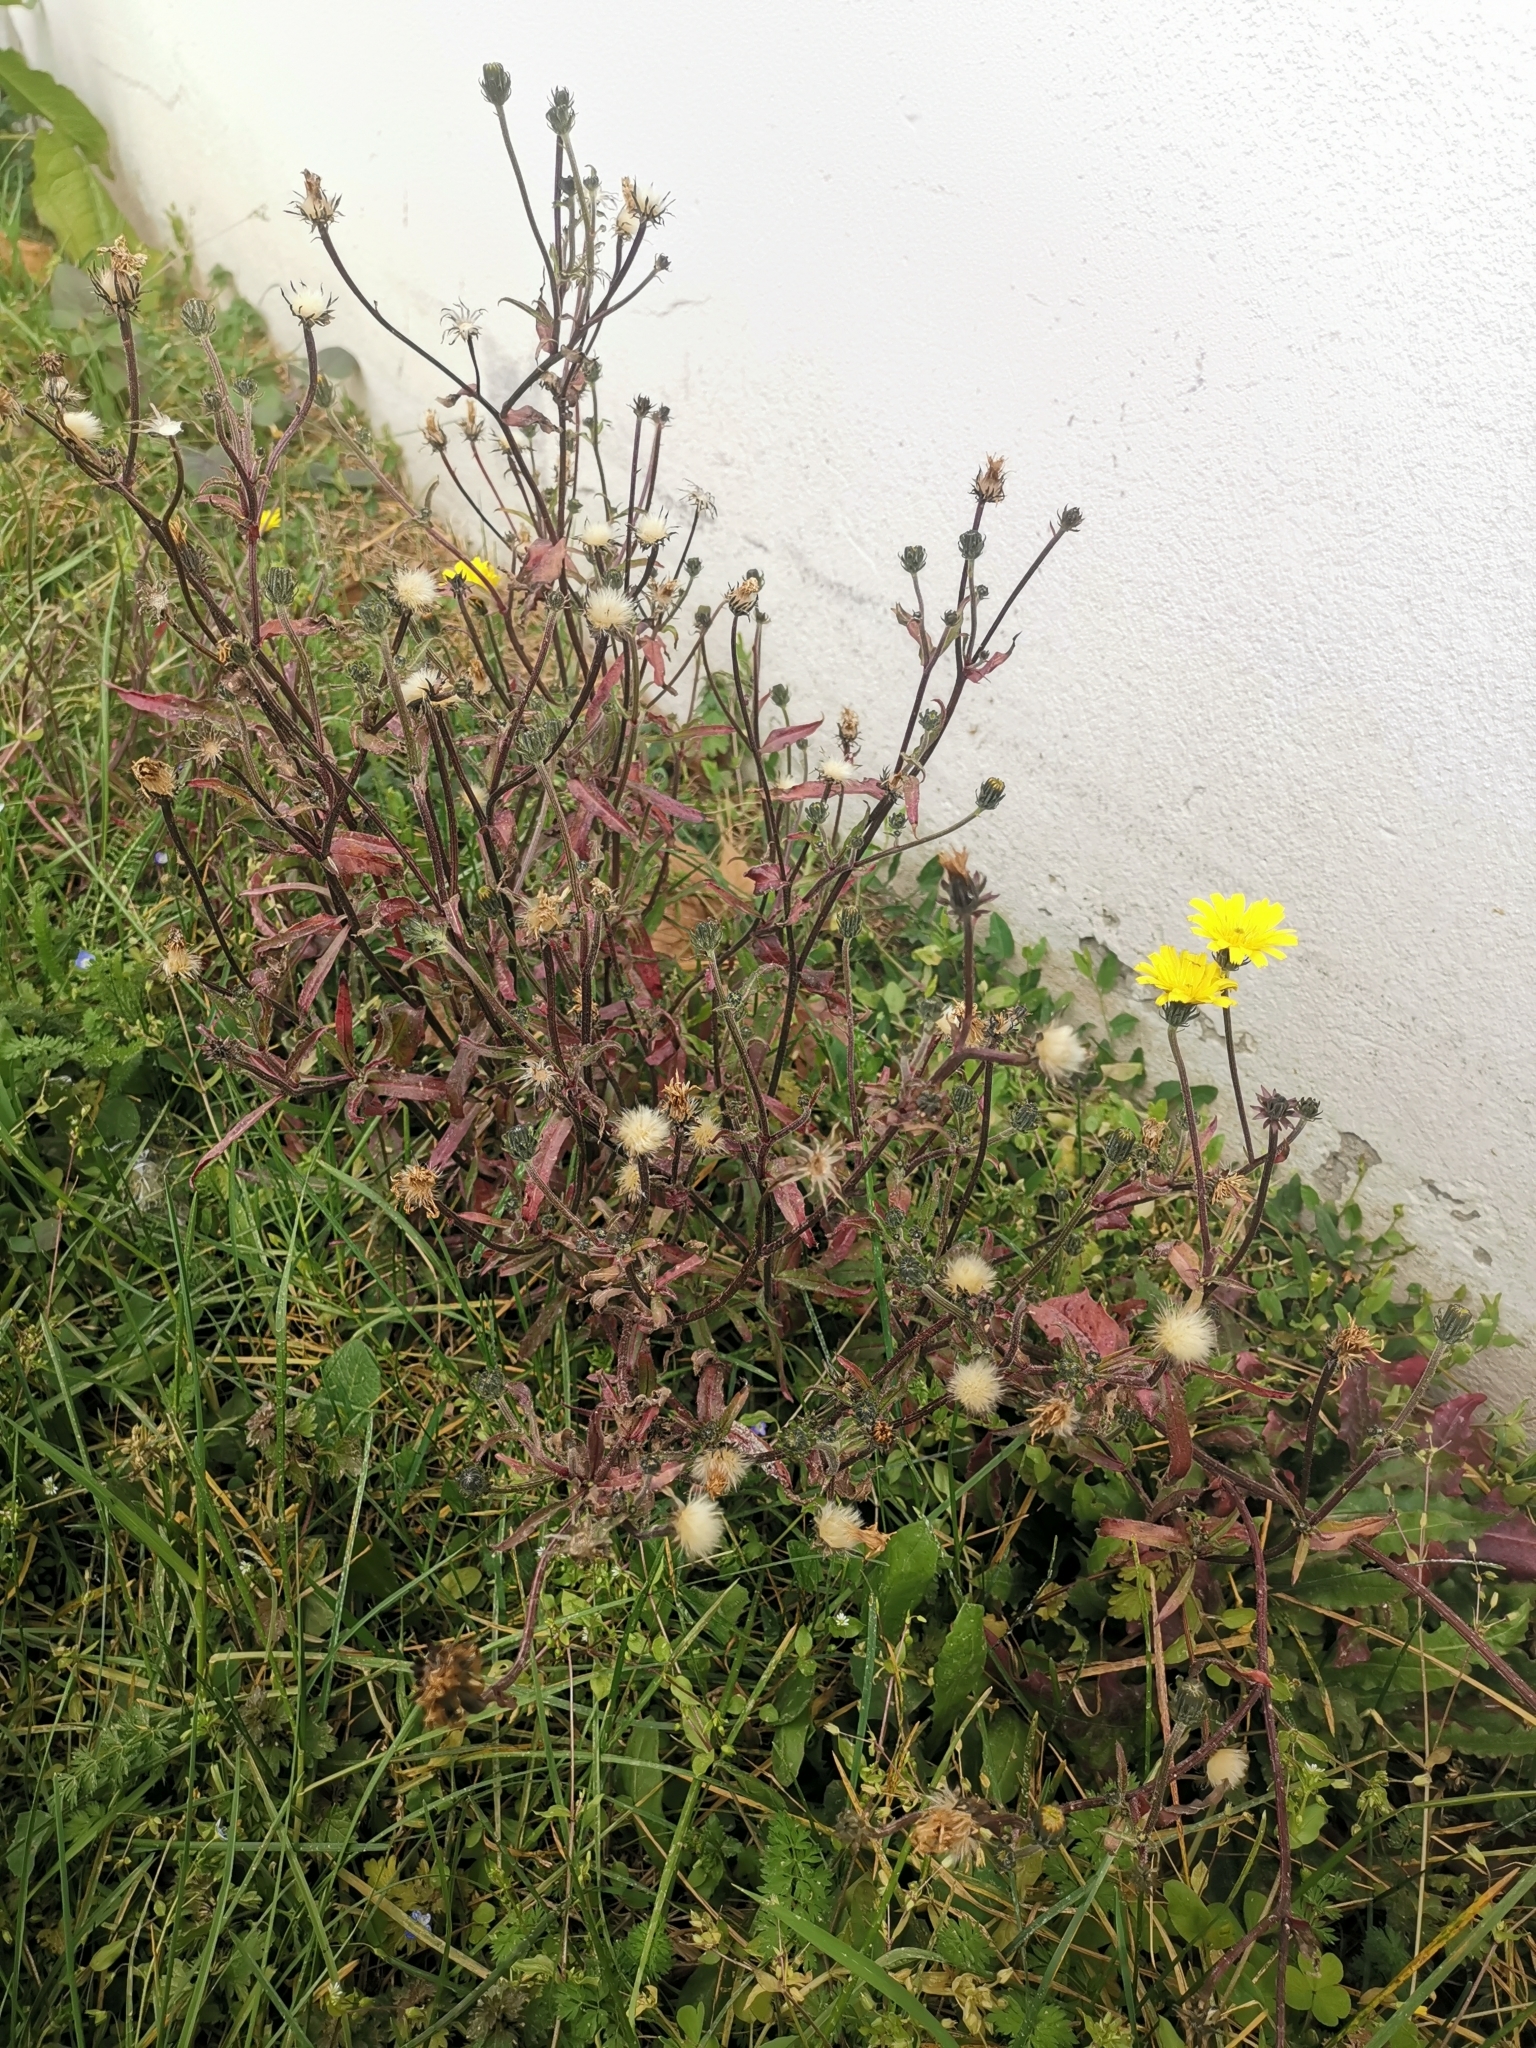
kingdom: Plantae
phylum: Tracheophyta
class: Magnoliopsida
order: Asterales
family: Asteraceae
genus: Picris
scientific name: Picris hieracioides
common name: Hawkweed oxtongue
